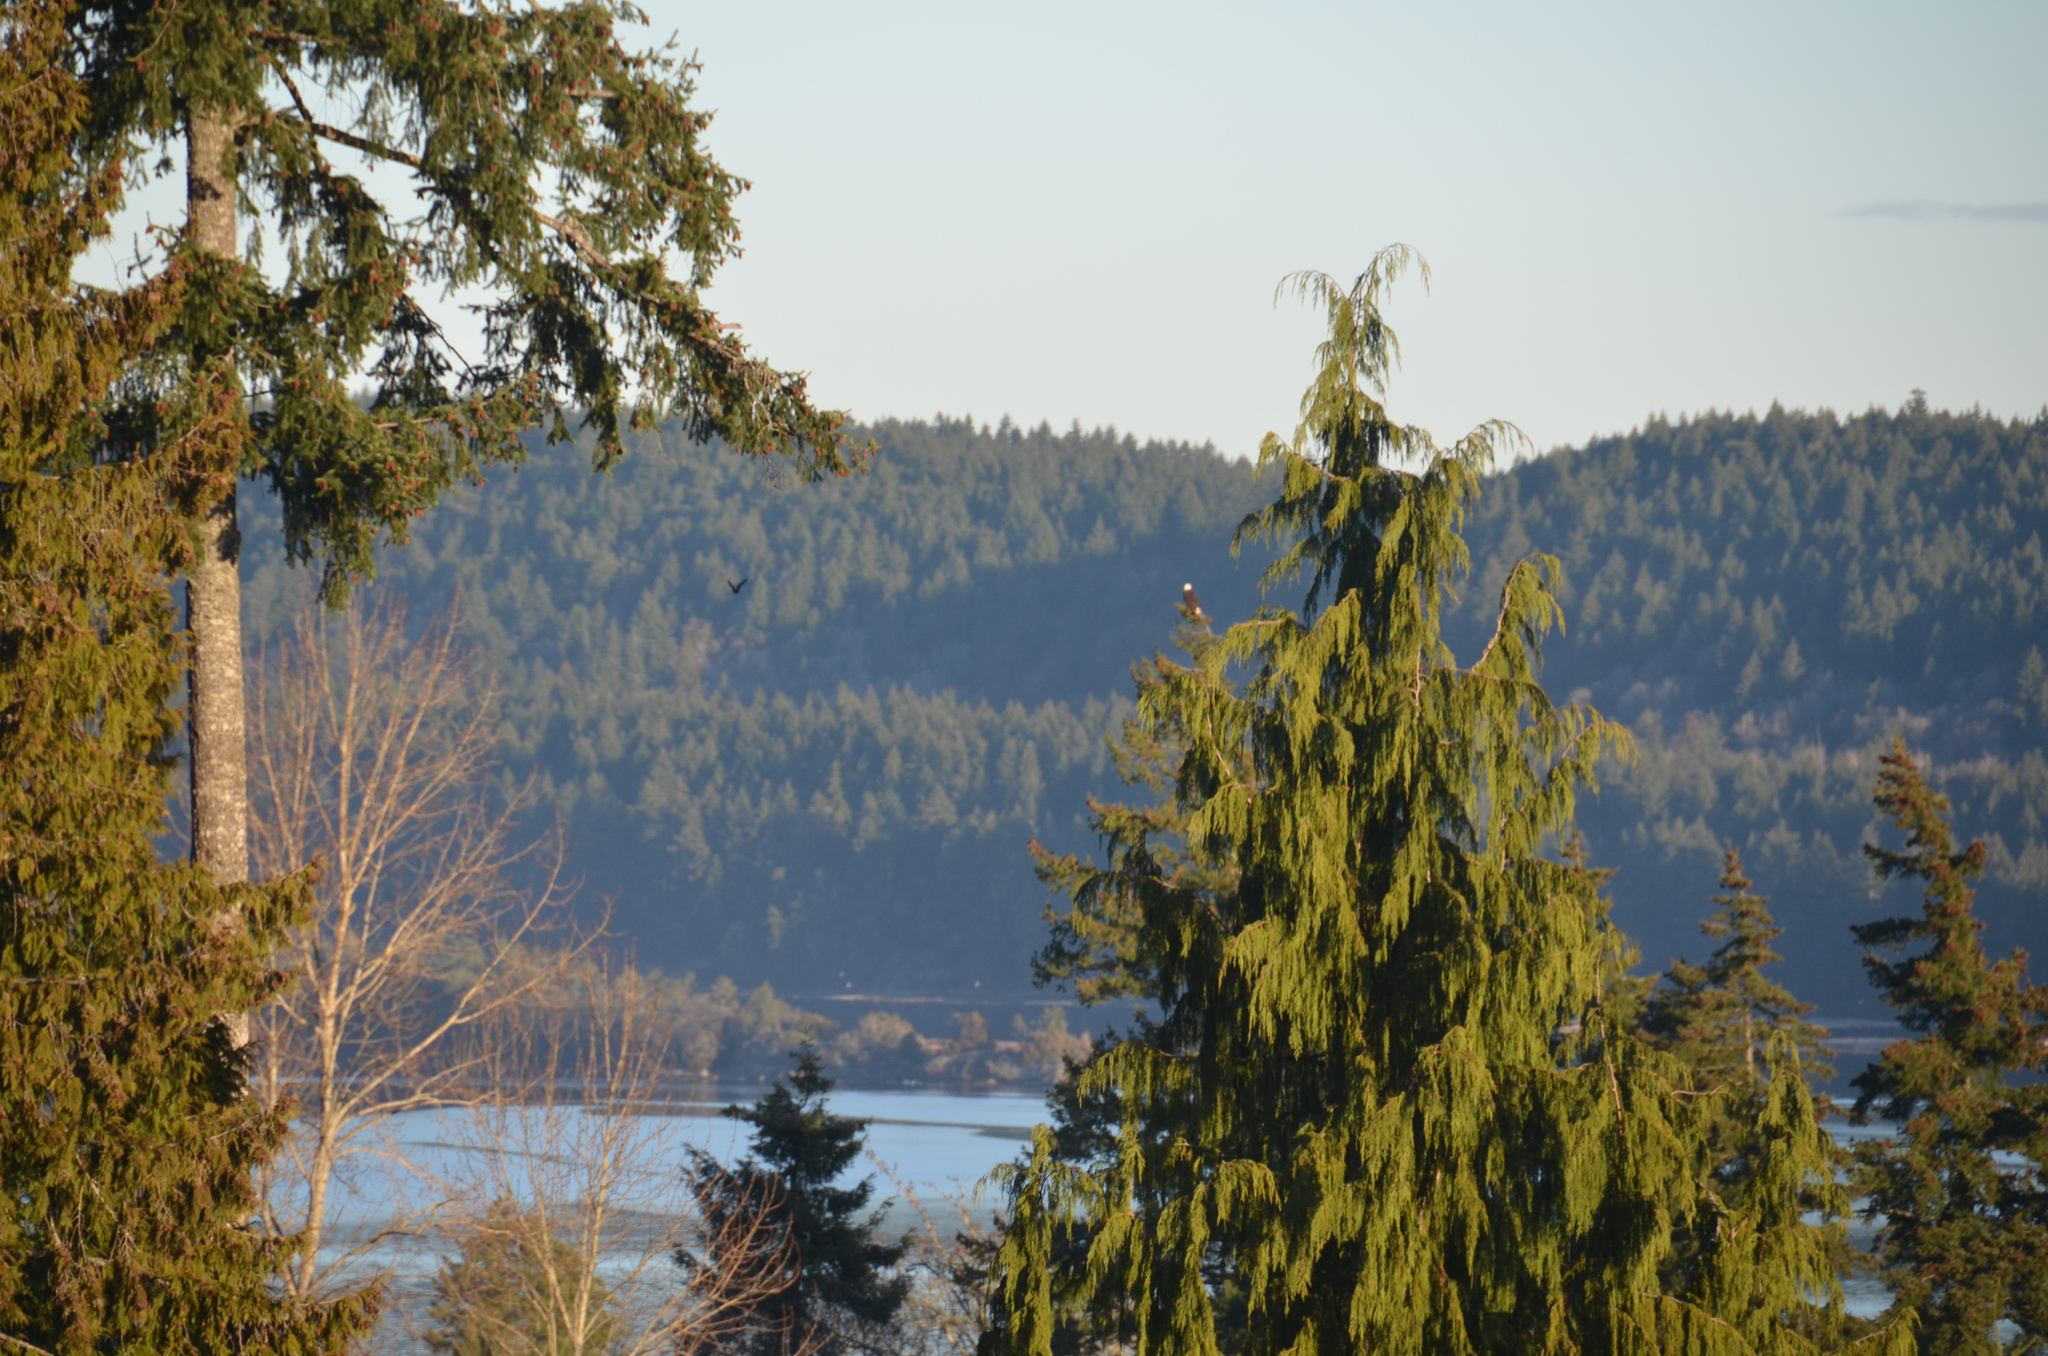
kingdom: Animalia
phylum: Chordata
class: Aves
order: Accipitriformes
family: Accipitridae
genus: Haliaeetus
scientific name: Haliaeetus leucocephalus
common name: Bald eagle
